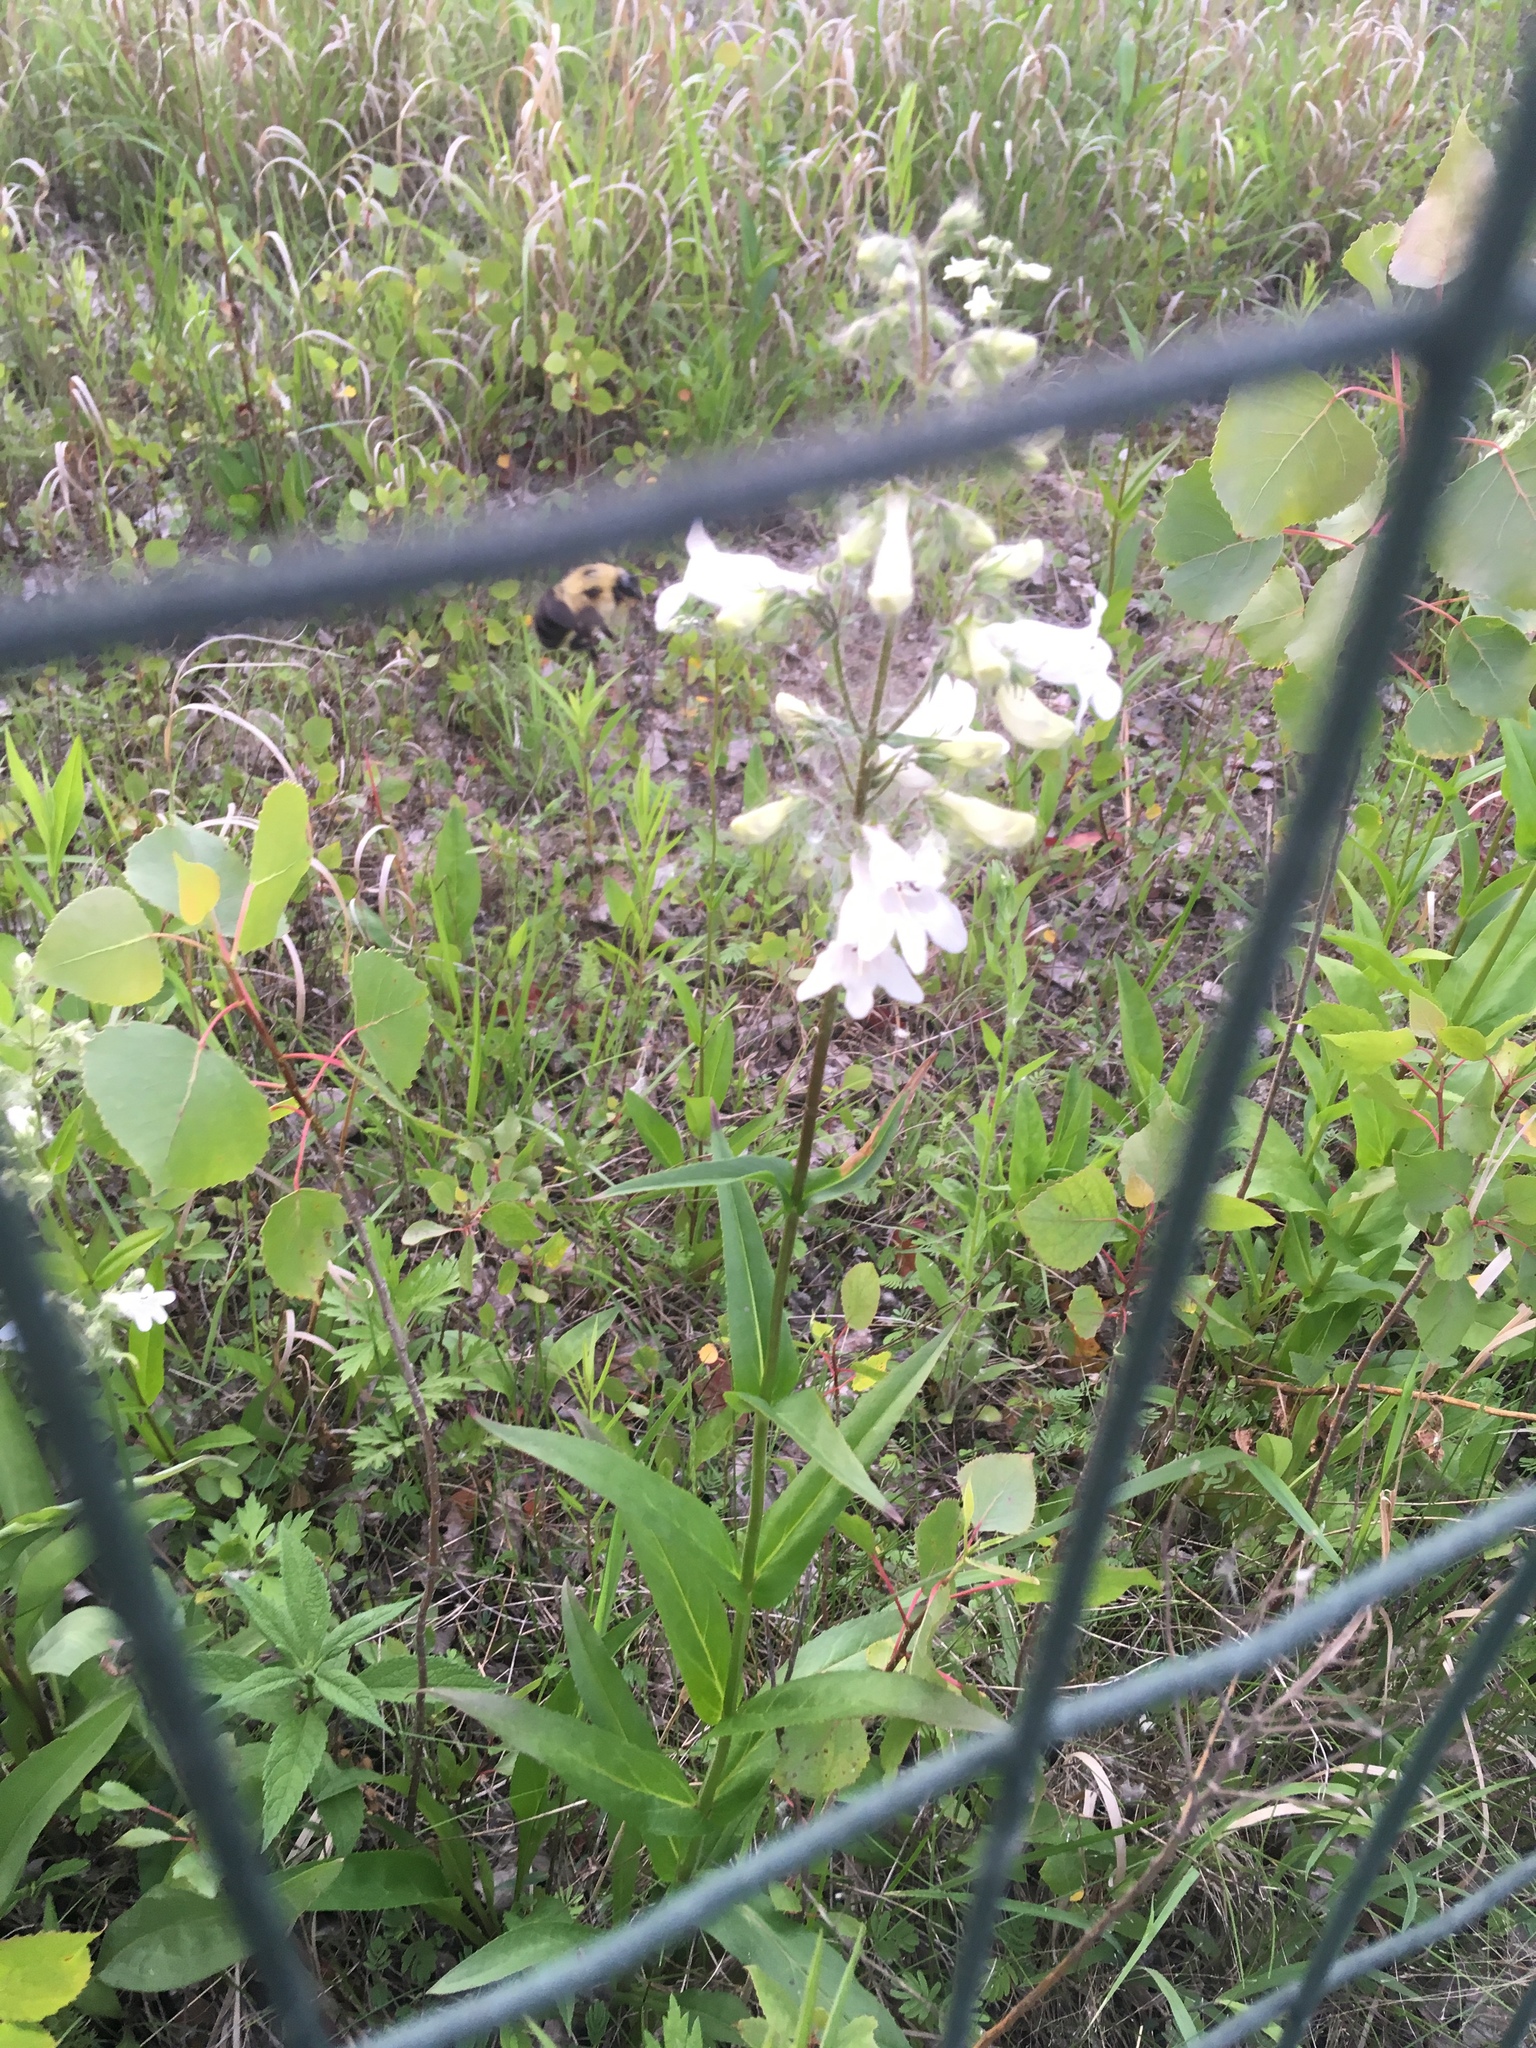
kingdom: Plantae
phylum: Tracheophyta
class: Magnoliopsida
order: Lamiales
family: Plantaginaceae
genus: Penstemon
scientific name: Penstemon
